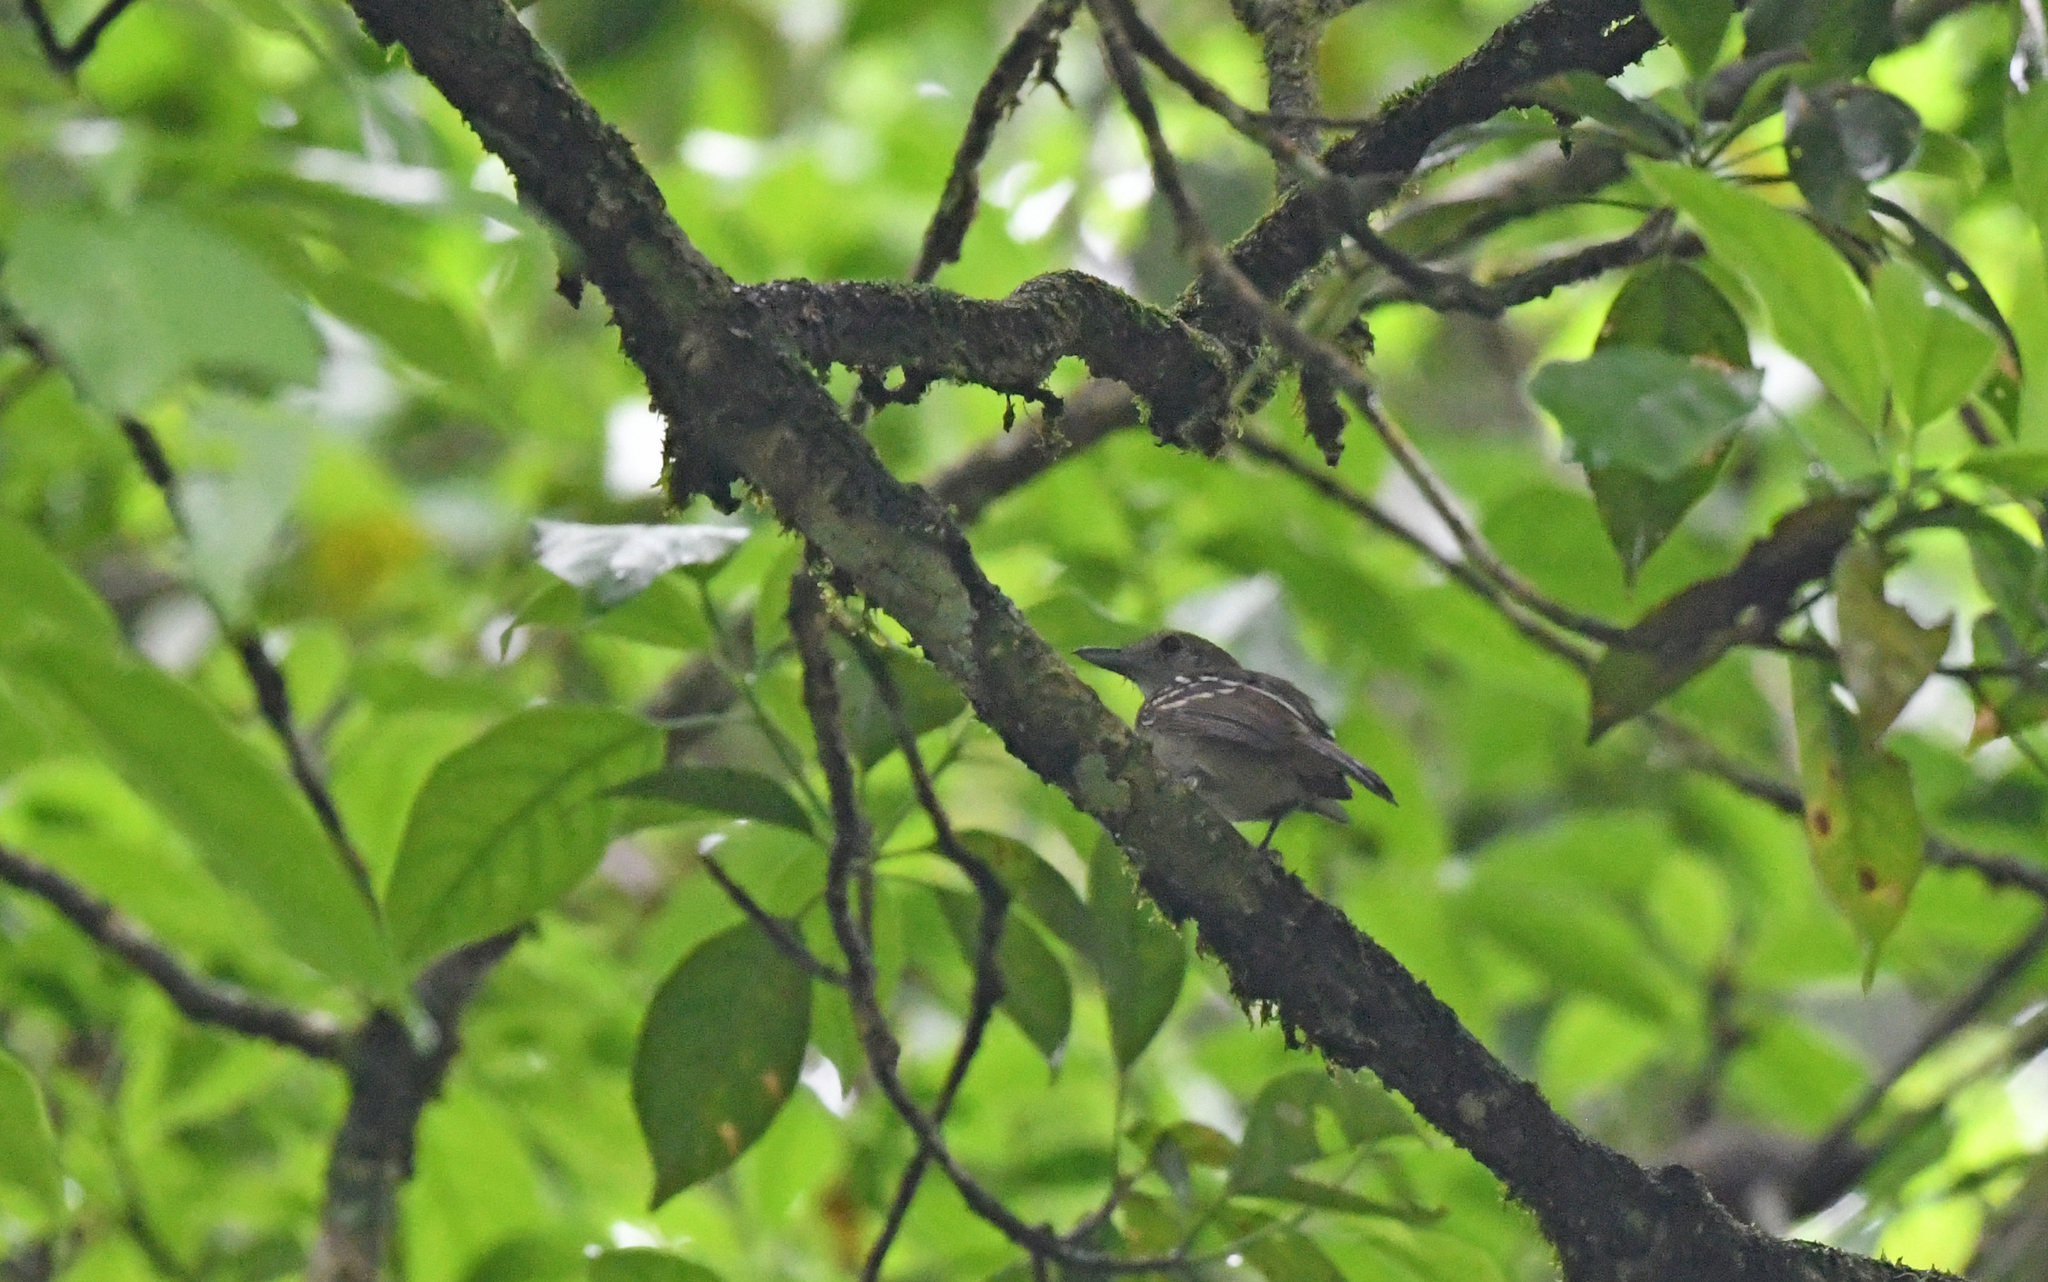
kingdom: Animalia
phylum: Chordata
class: Aves
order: Passeriformes
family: Thamnophilidae
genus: Thamnophilus
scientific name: Thamnophilus atrinucha
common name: Black-crowned antshrike
